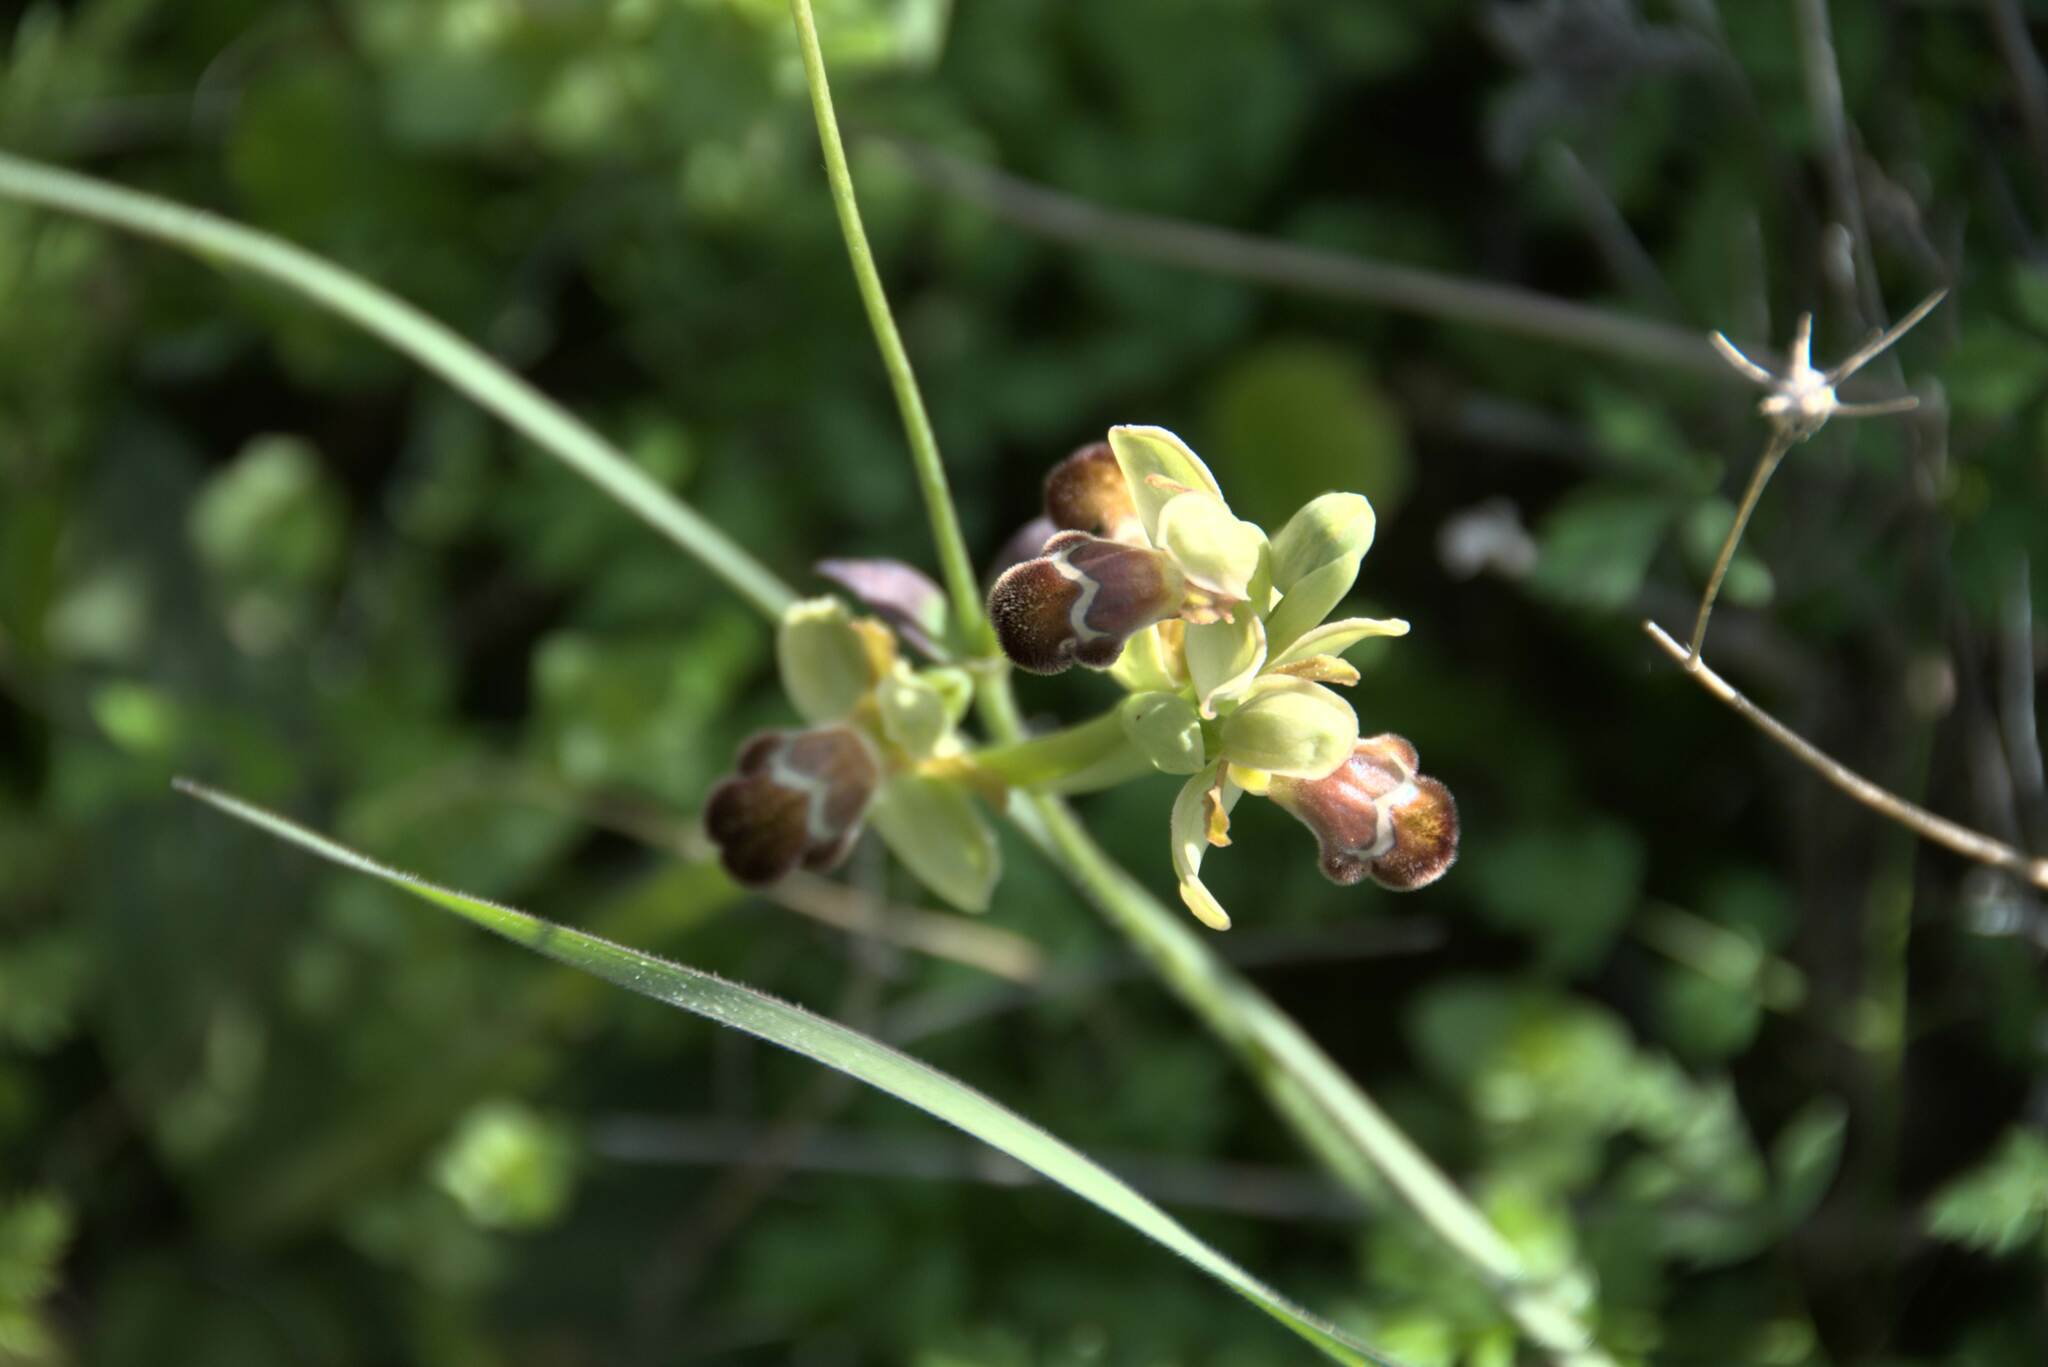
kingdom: Plantae
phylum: Tracheophyta
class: Liliopsida
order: Asparagales
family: Orchidaceae
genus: Ophrys
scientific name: Ophrys omegaifera
